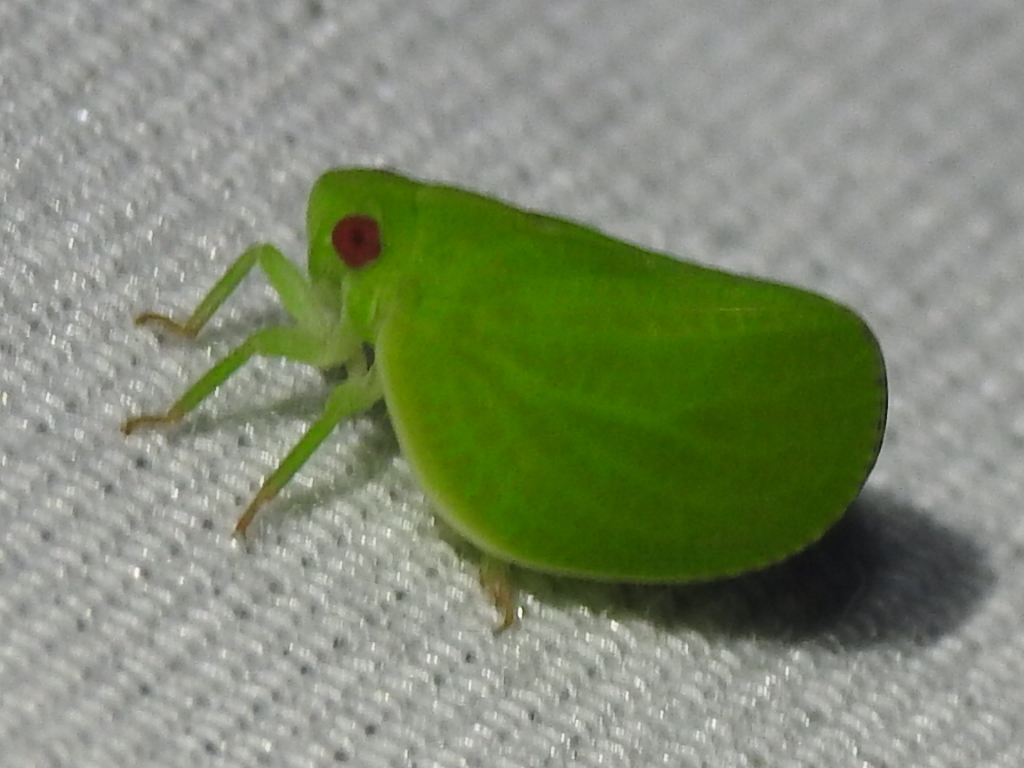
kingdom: Animalia
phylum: Arthropoda
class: Insecta
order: Hemiptera
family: Acanaloniidae
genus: Acanalonia
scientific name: Acanalonia virescens
